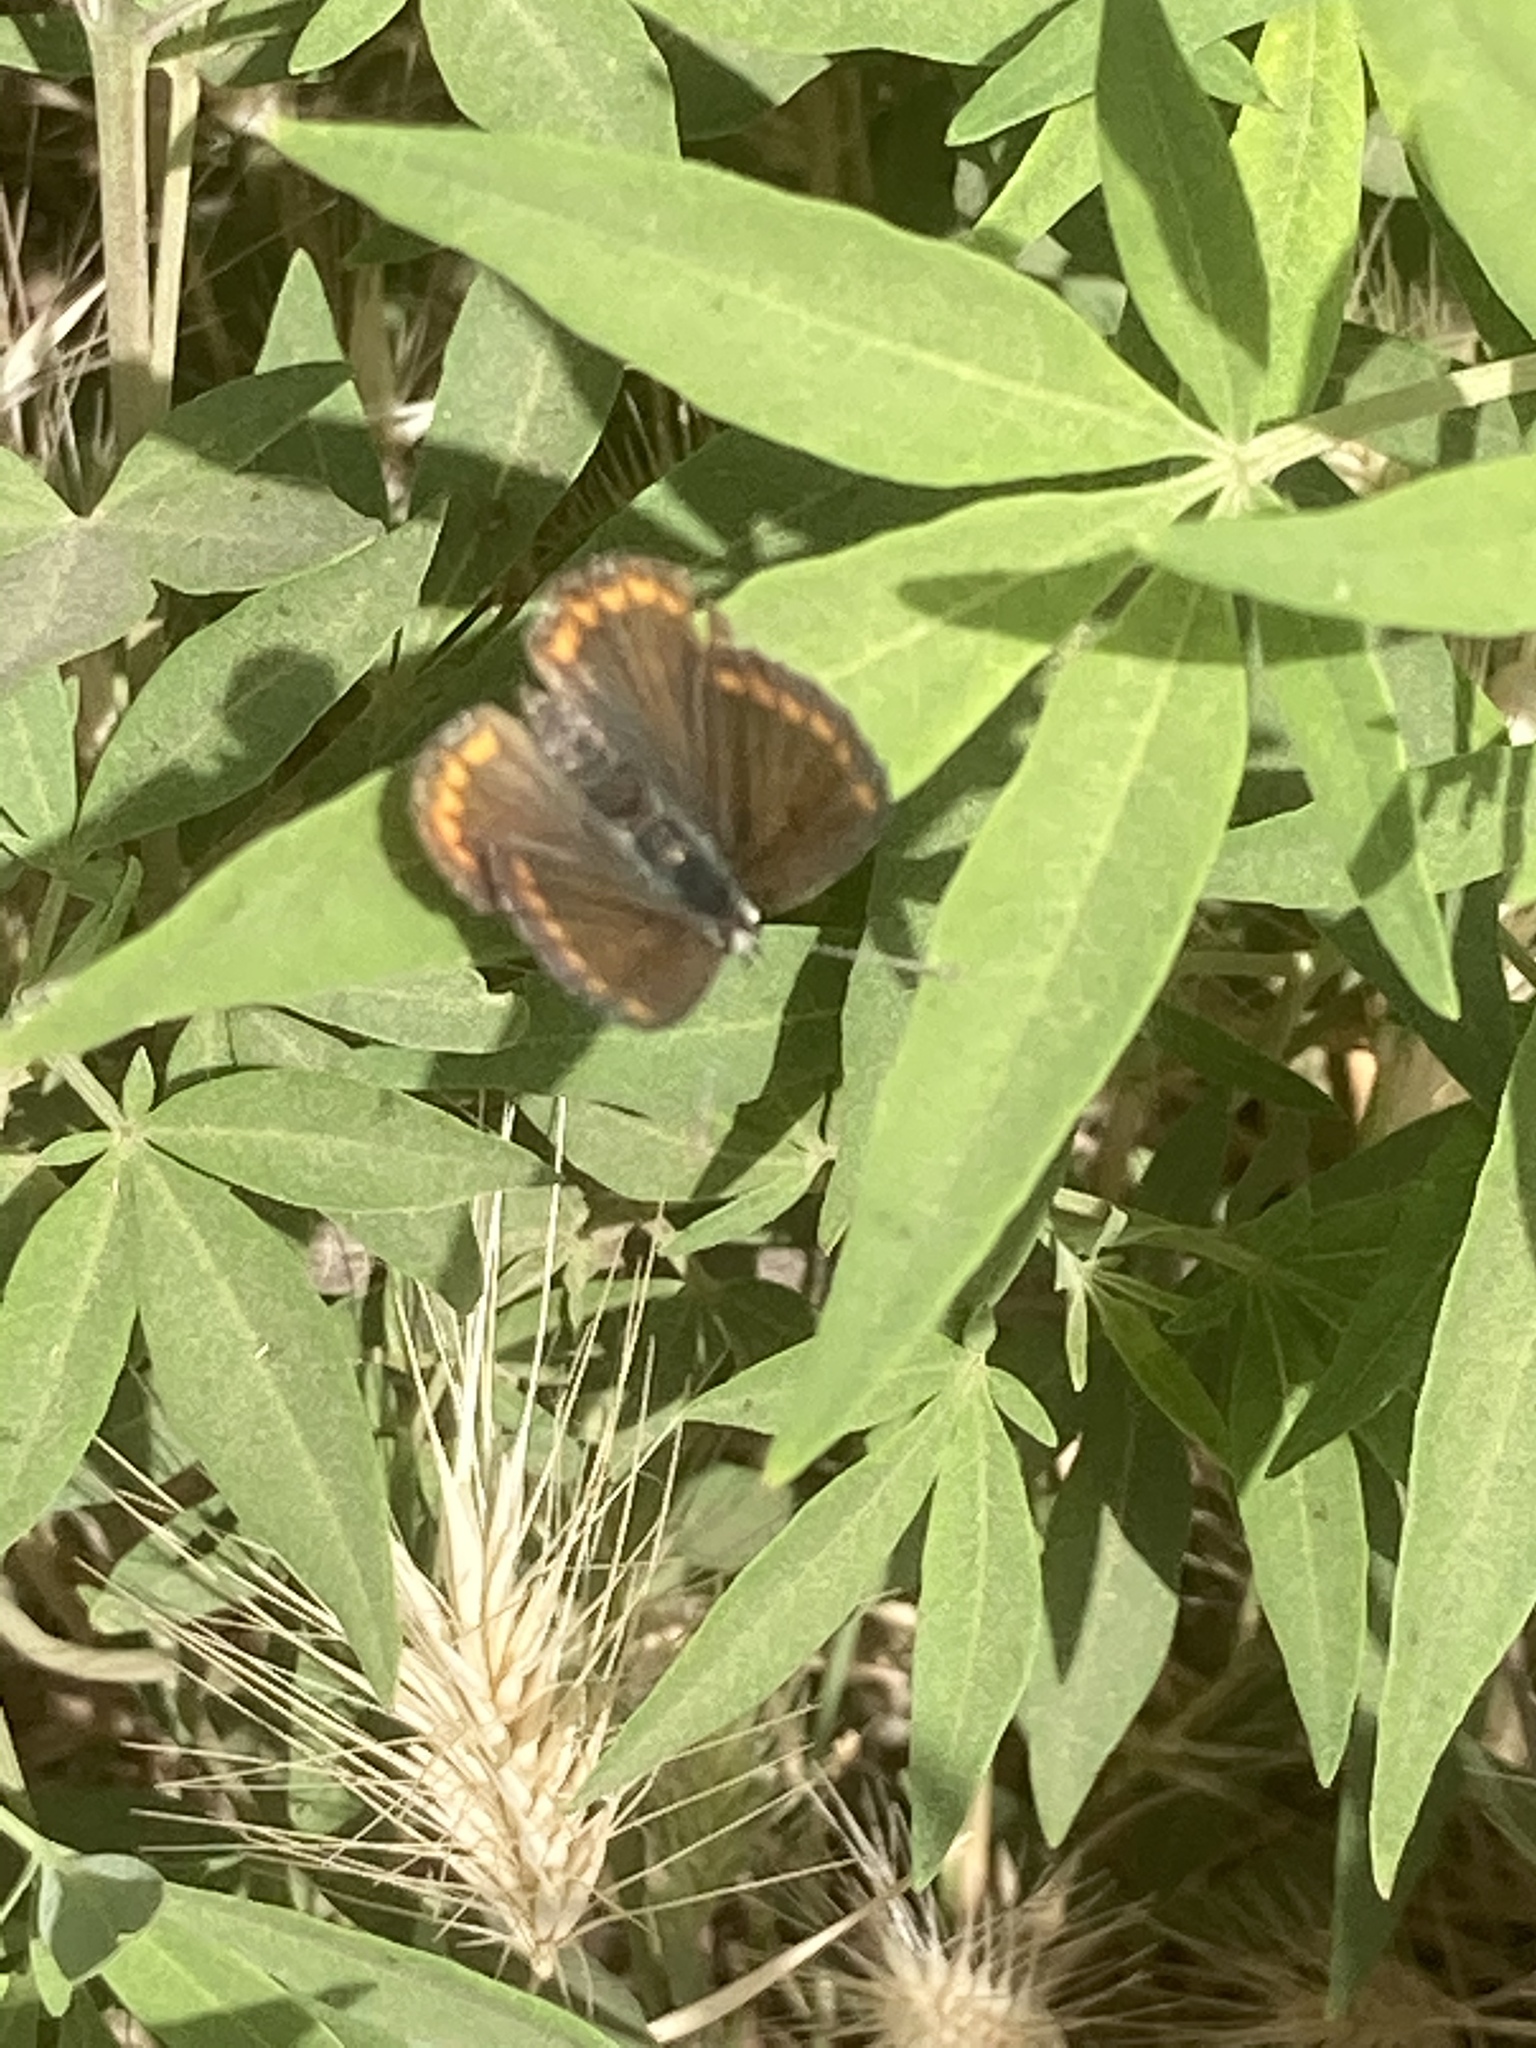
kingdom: Animalia
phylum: Arthropoda
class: Insecta
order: Lepidoptera
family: Lycaenidae
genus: Aricia
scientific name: Aricia agestis
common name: Brown argus
